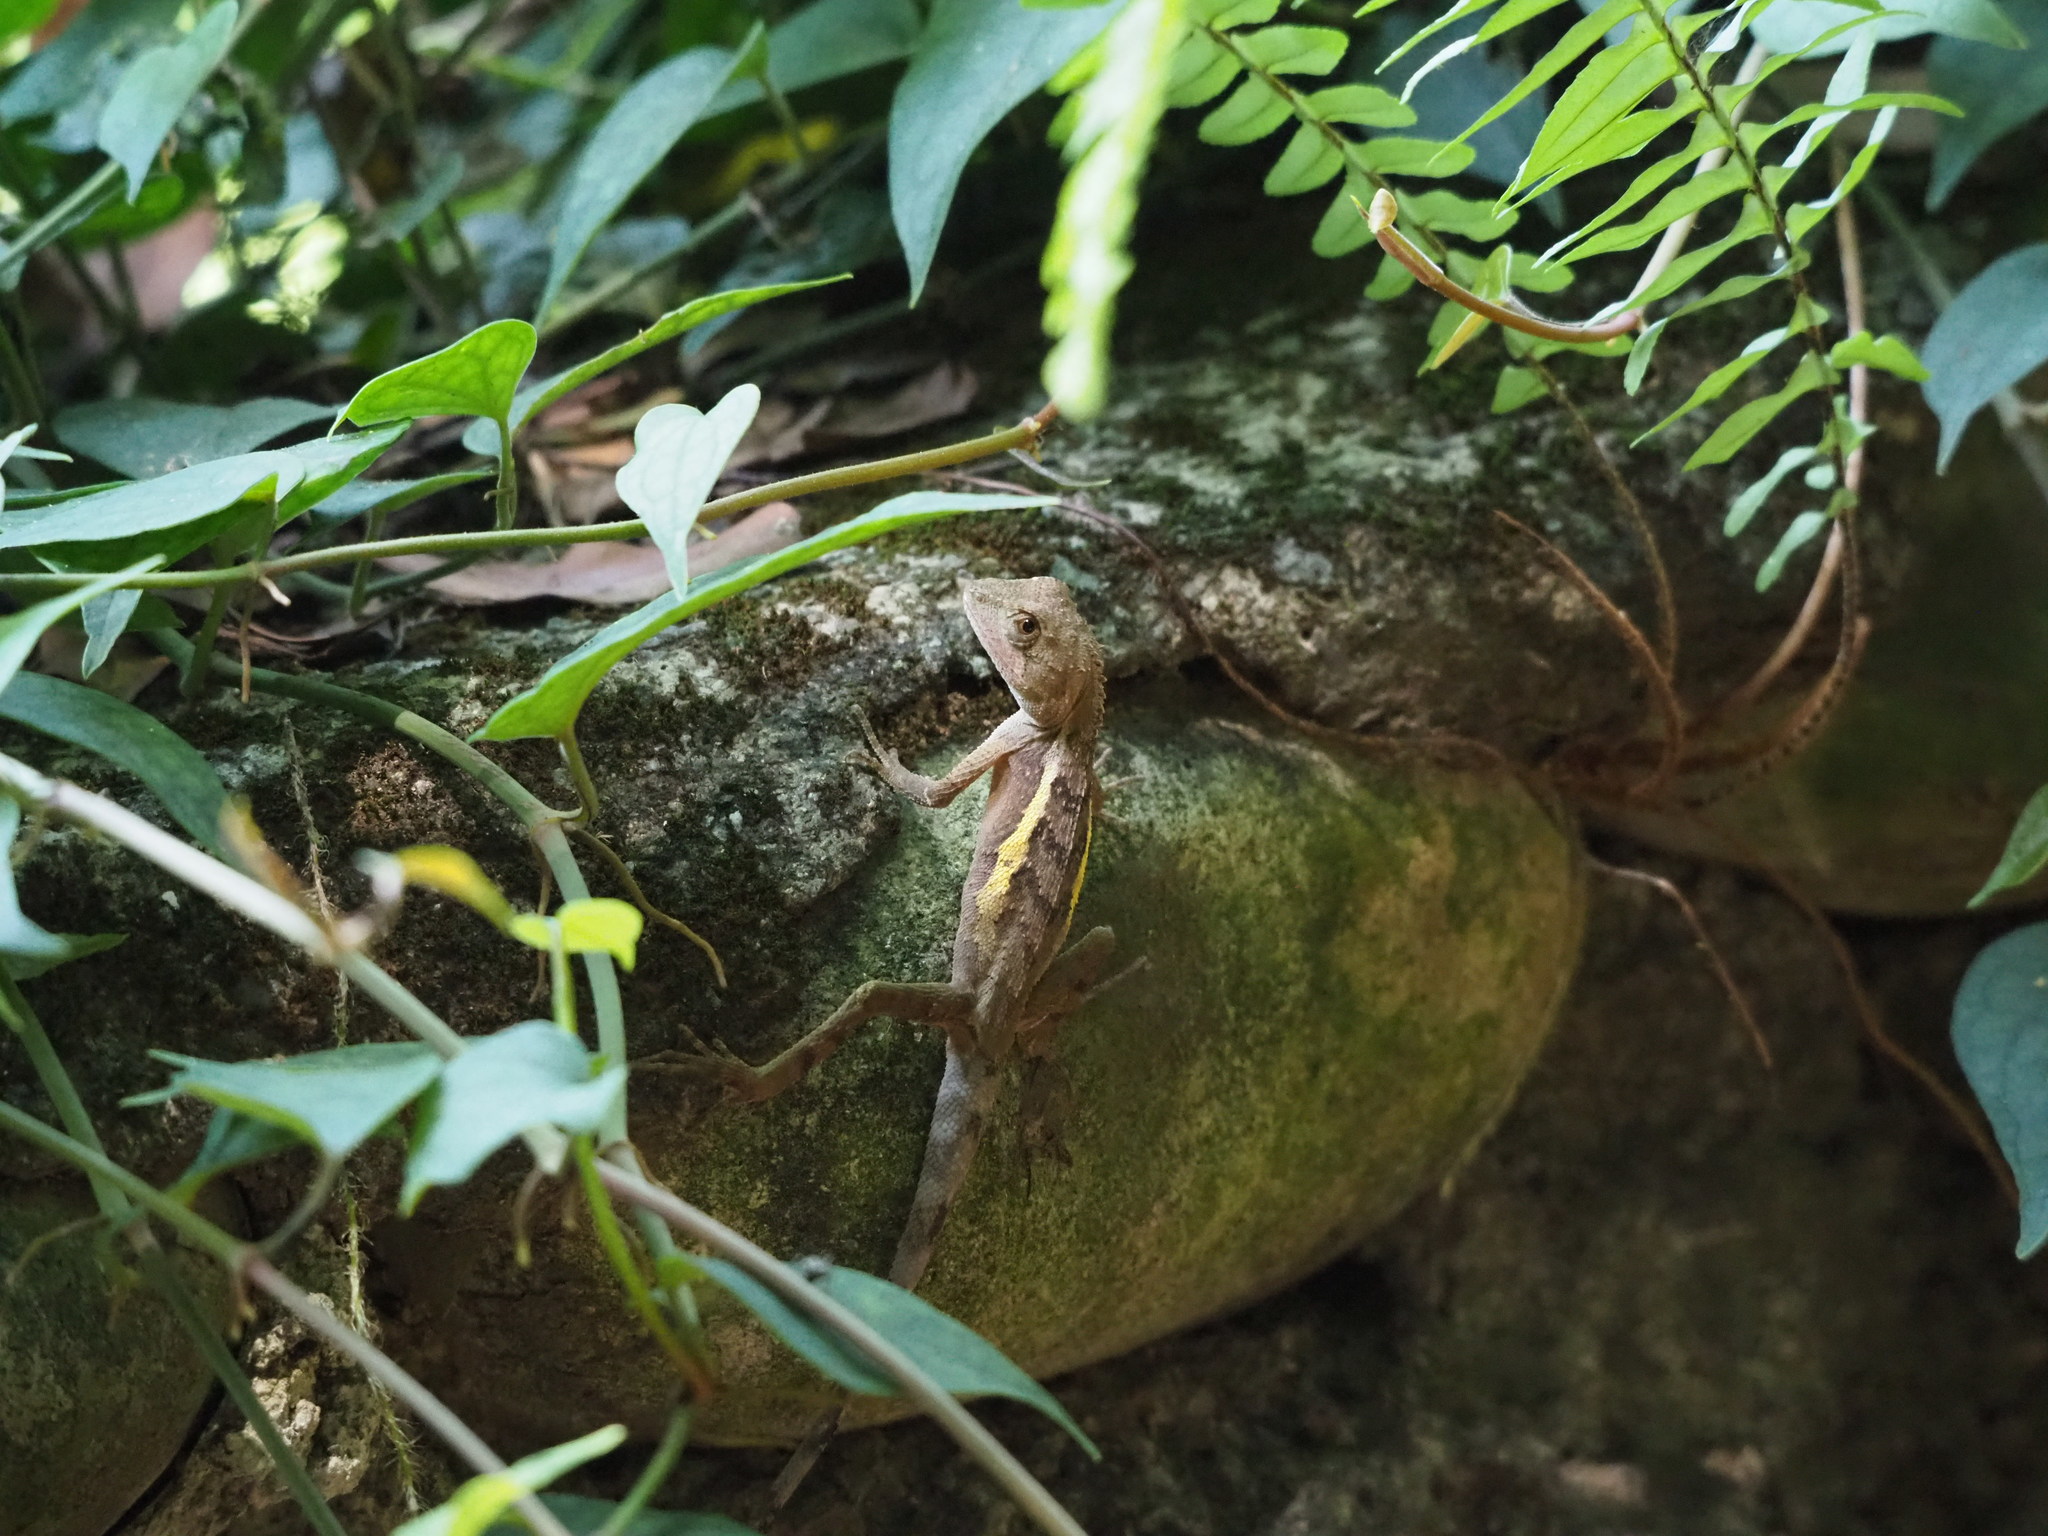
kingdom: Animalia
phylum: Chordata
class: Squamata
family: Agamidae
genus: Diploderma
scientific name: Diploderma swinhonis
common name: Taiwan japalure
